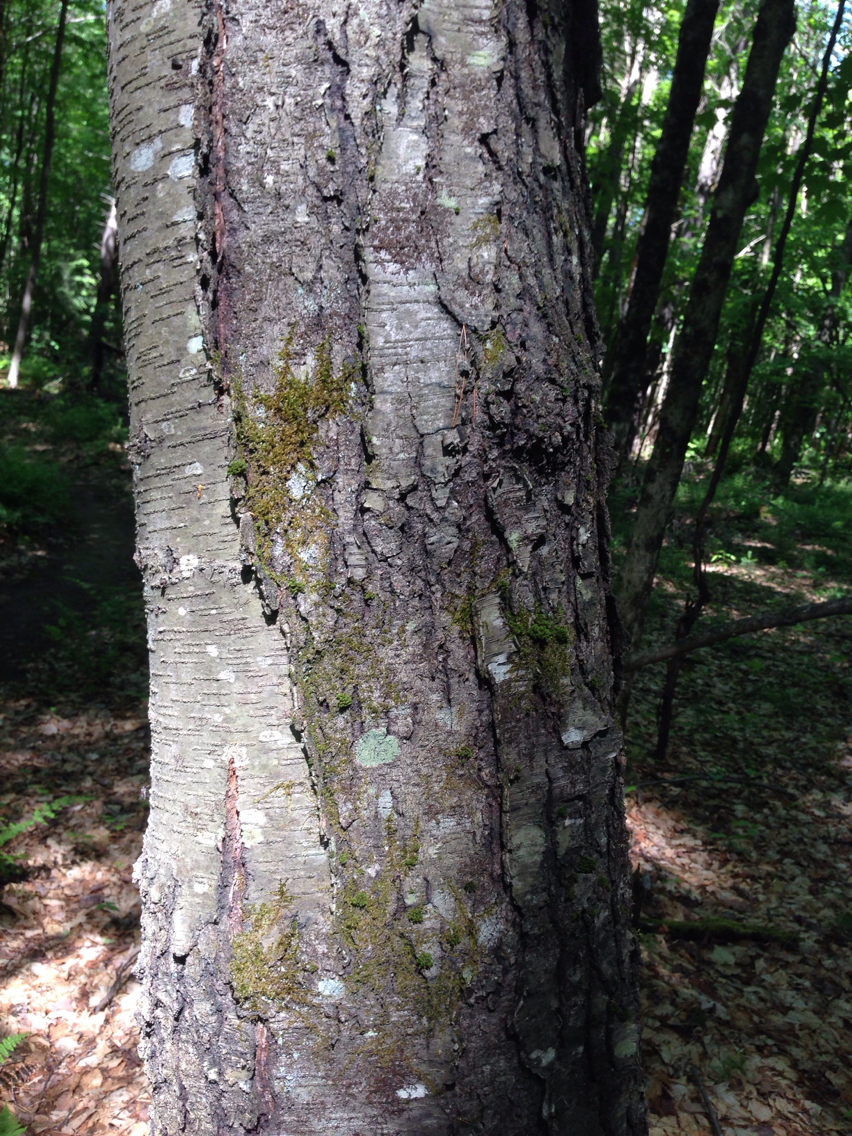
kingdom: Plantae
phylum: Tracheophyta
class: Magnoliopsida
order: Fagales
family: Betulaceae
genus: Betula
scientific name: Betula lenta
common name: Black birch
